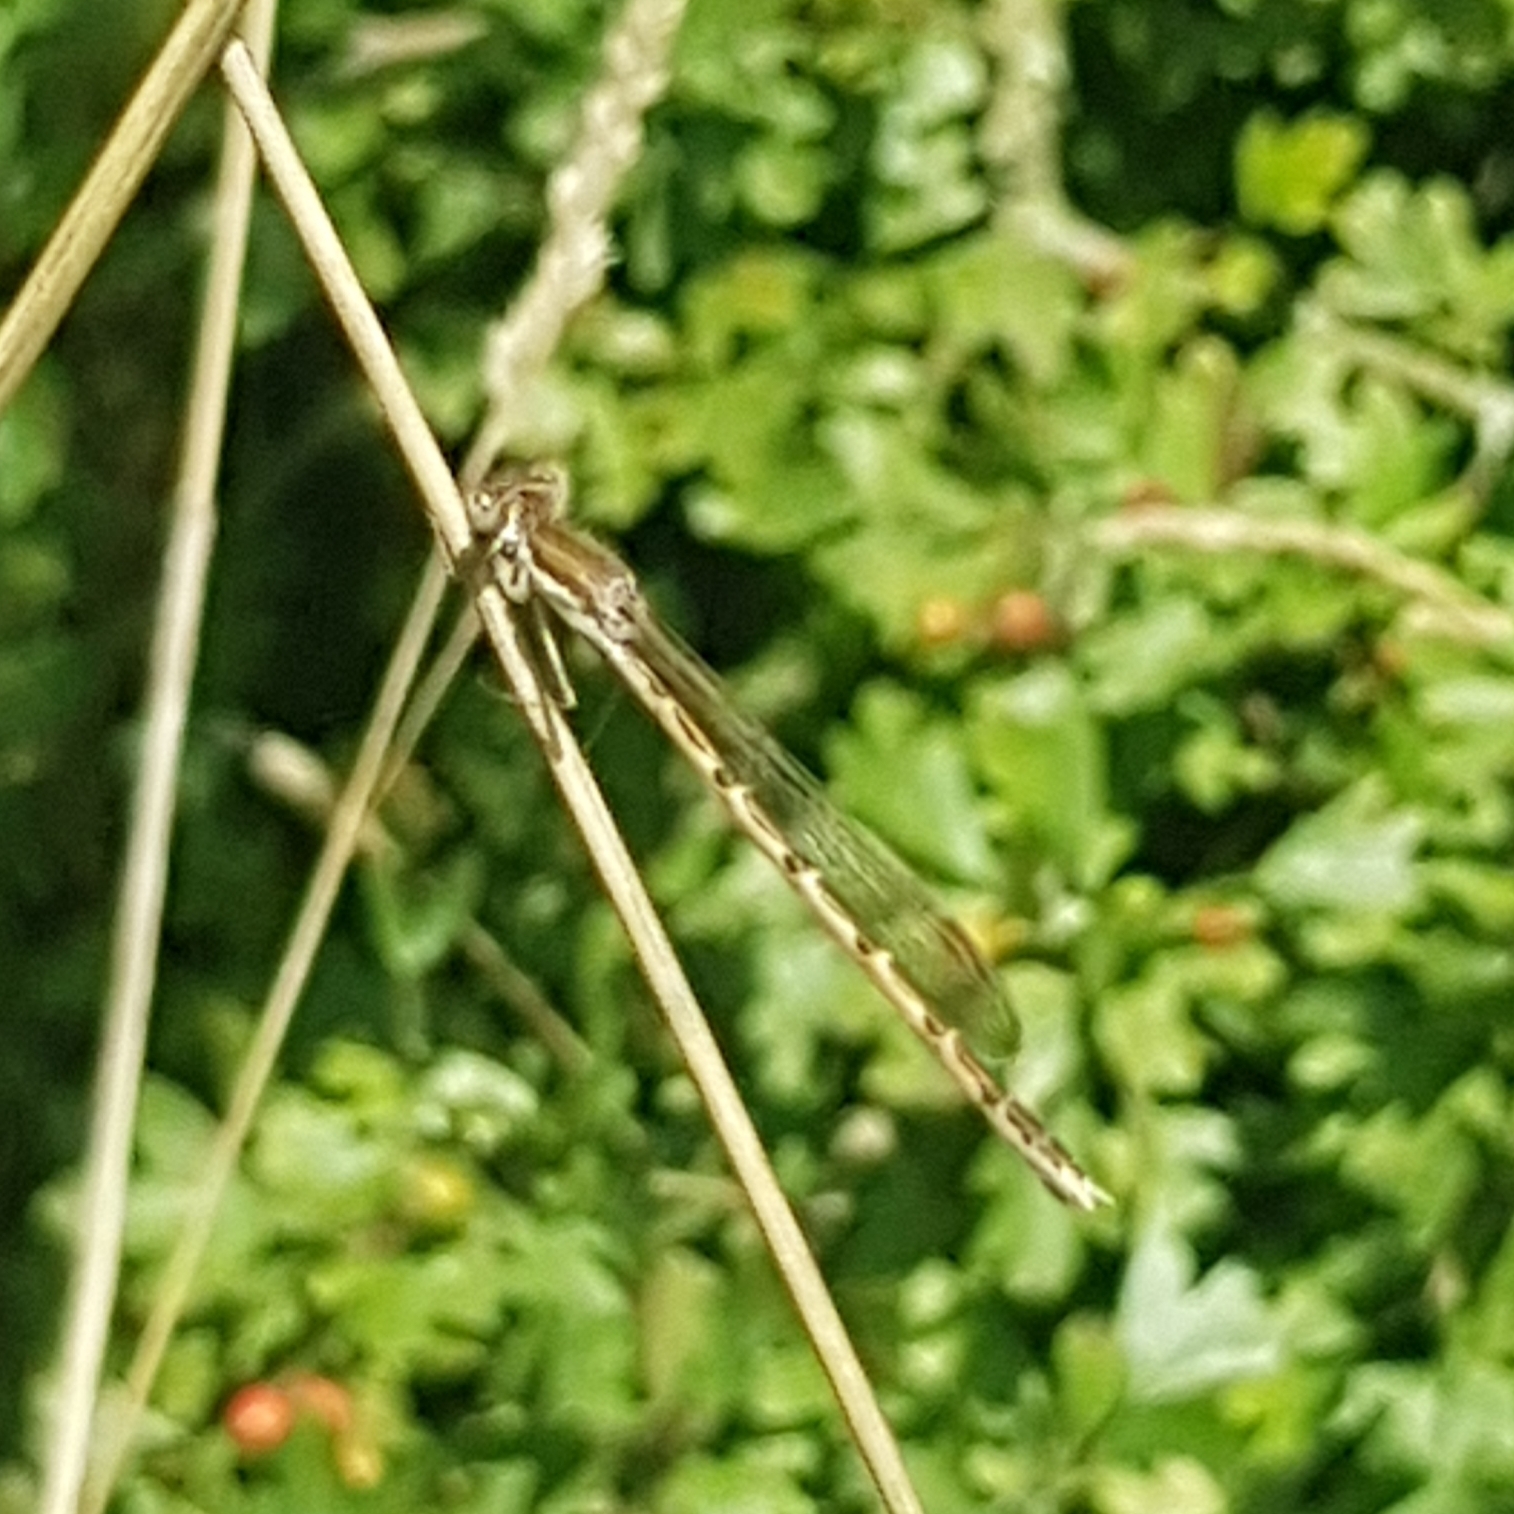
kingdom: Animalia
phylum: Arthropoda
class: Insecta
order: Odonata
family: Lestidae
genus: Sympecma
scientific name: Sympecma fusca
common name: Common winter damsel
